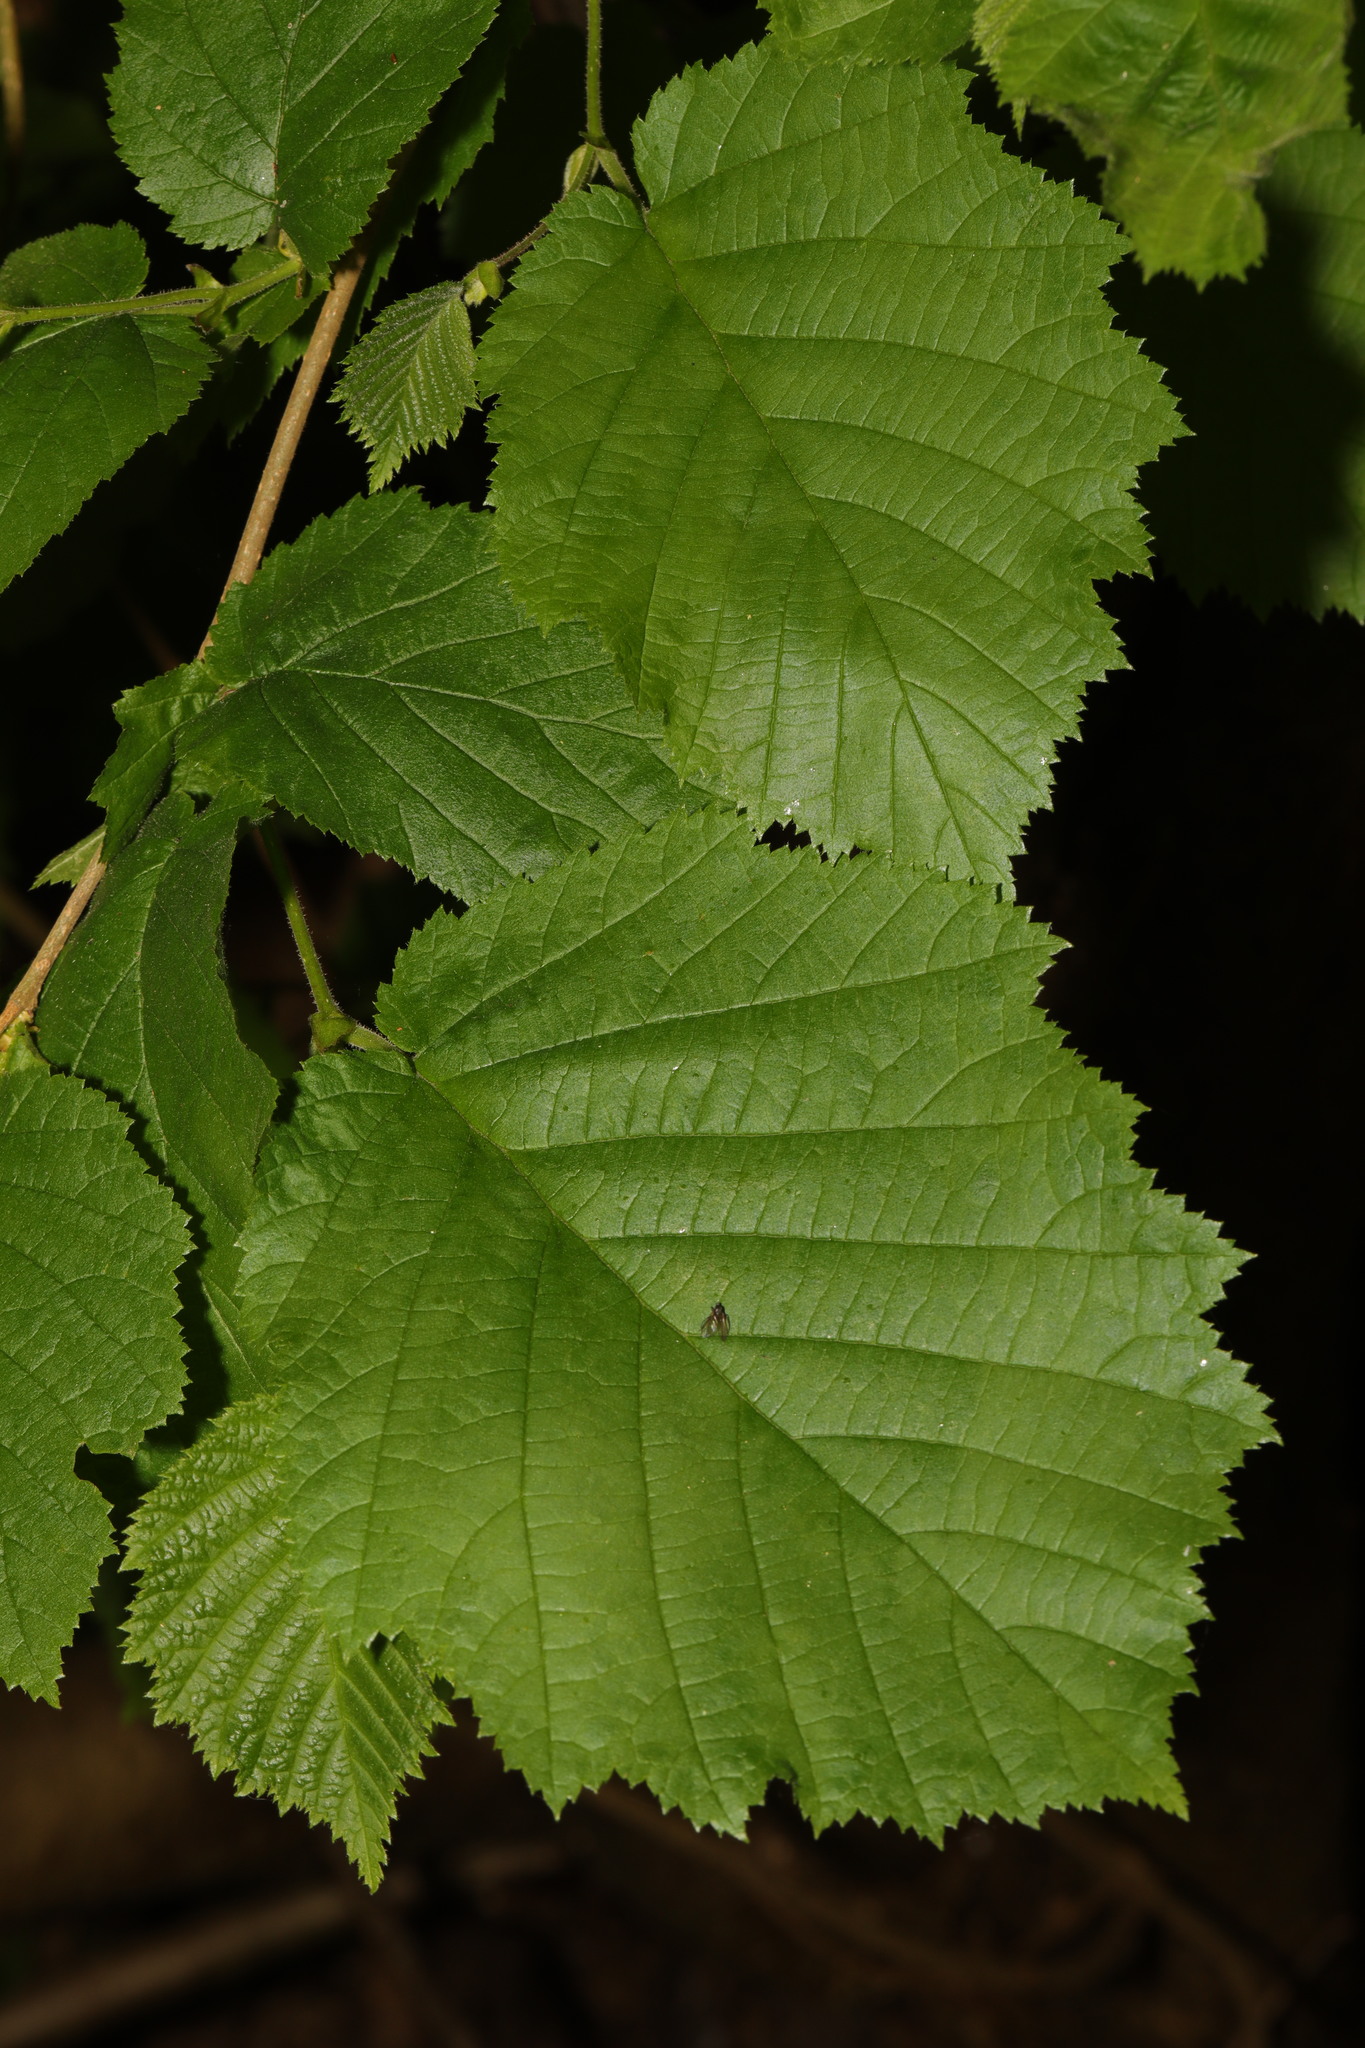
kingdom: Plantae
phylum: Tracheophyta
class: Magnoliopsida
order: Fagales
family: Betulaceae
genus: Corylus
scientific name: Corylus avellana
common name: European hazel
